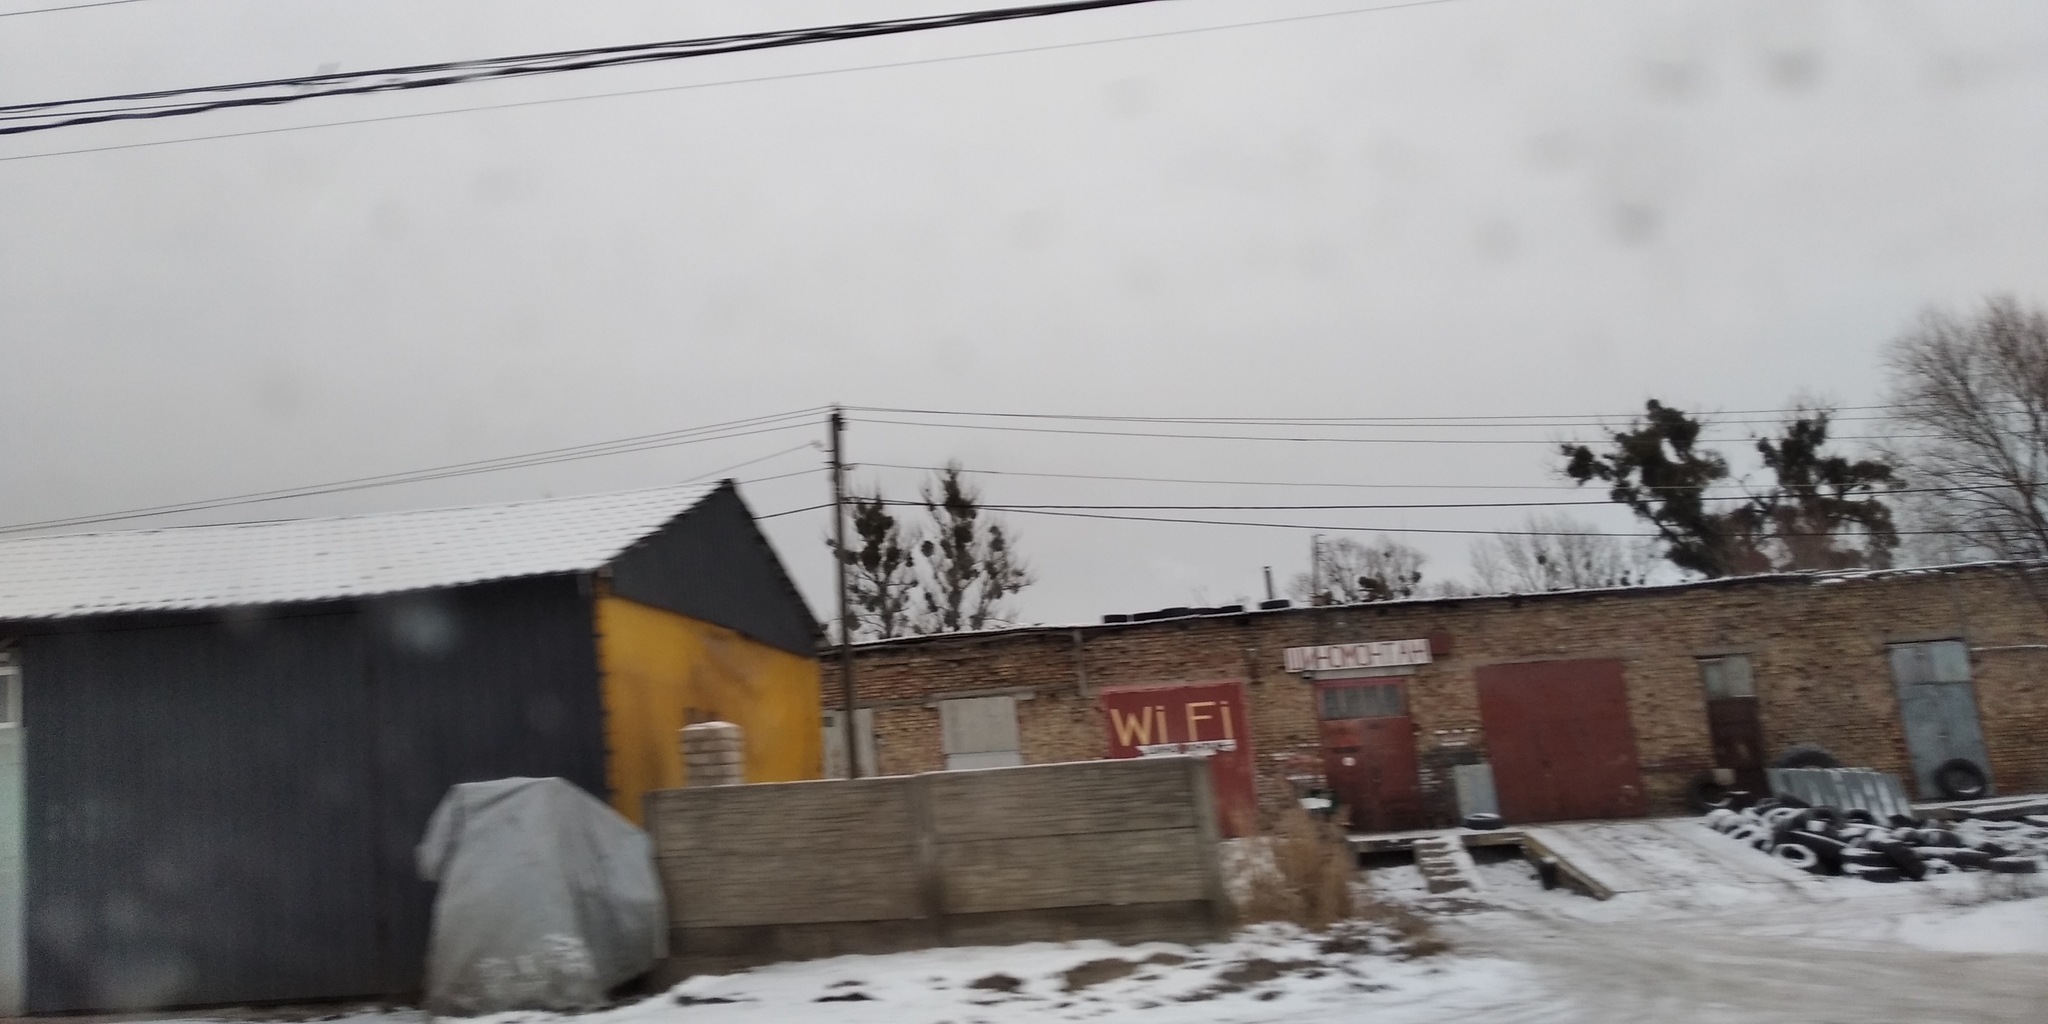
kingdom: Plantae
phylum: Tracheophyta
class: Magnoliopsida
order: Santalales
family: Viscaceae
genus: Viscum
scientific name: Viscum album
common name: Mistletoe
